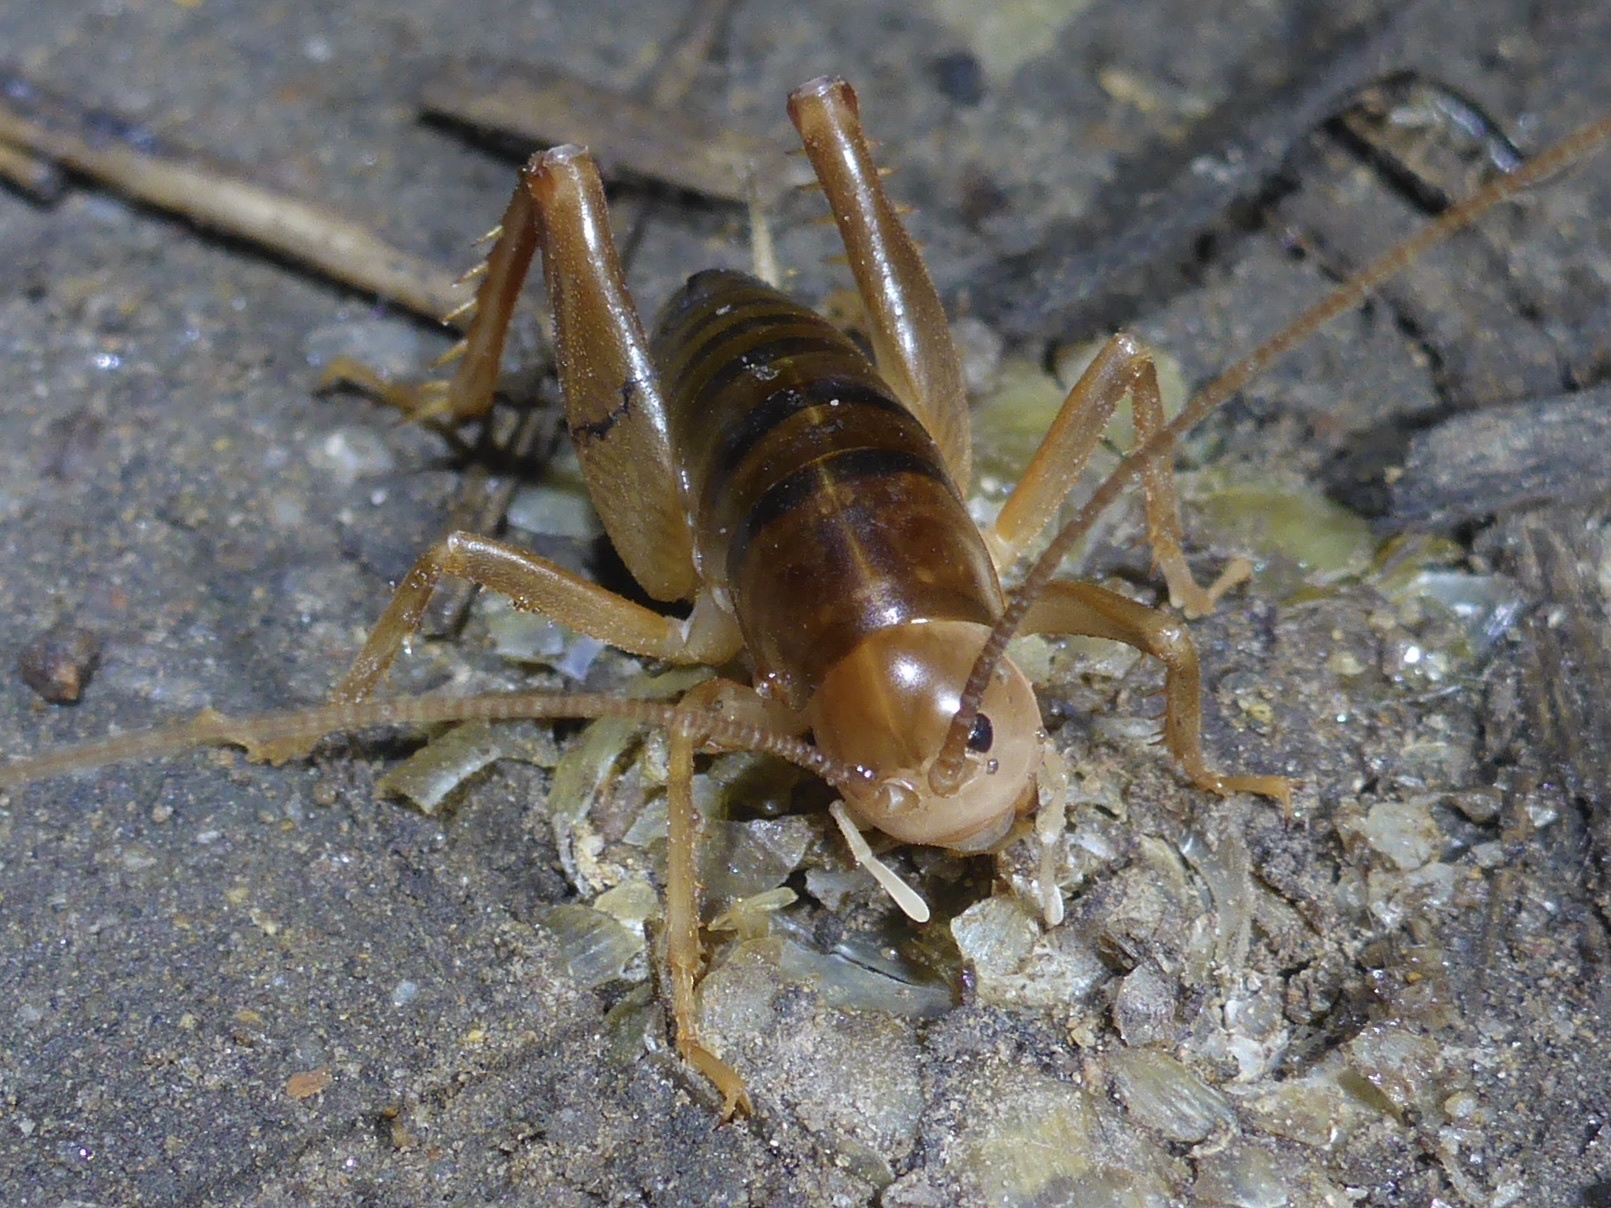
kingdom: Animalia
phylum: Arthropoda
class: Insecta
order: Orthoptera
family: Rhaphidophoridae
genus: Ceuthophilus
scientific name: Ceuthophilus californianus
